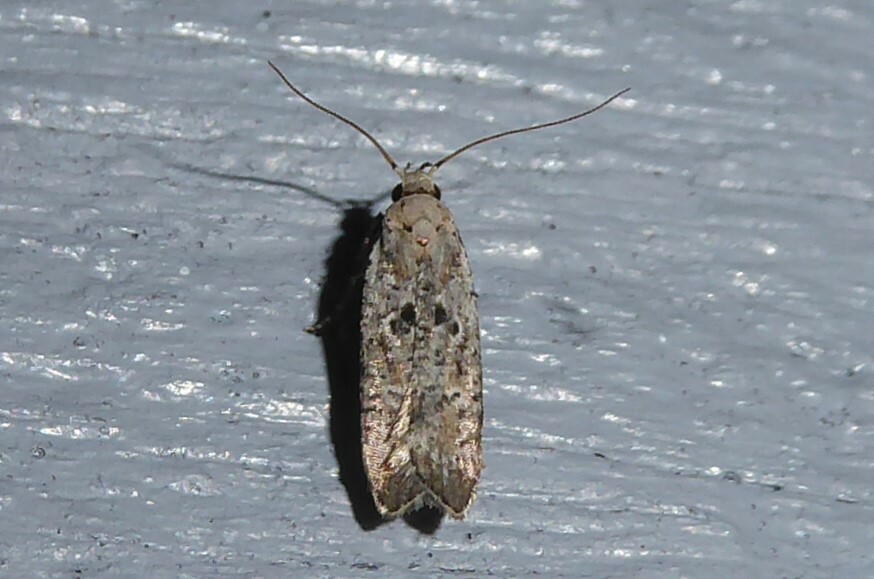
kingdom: Animalia
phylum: Arthropoda
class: Insecta
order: Lepidoptera
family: Gelechiidae
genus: Anisoplaca
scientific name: Anisoplaca achyrota
